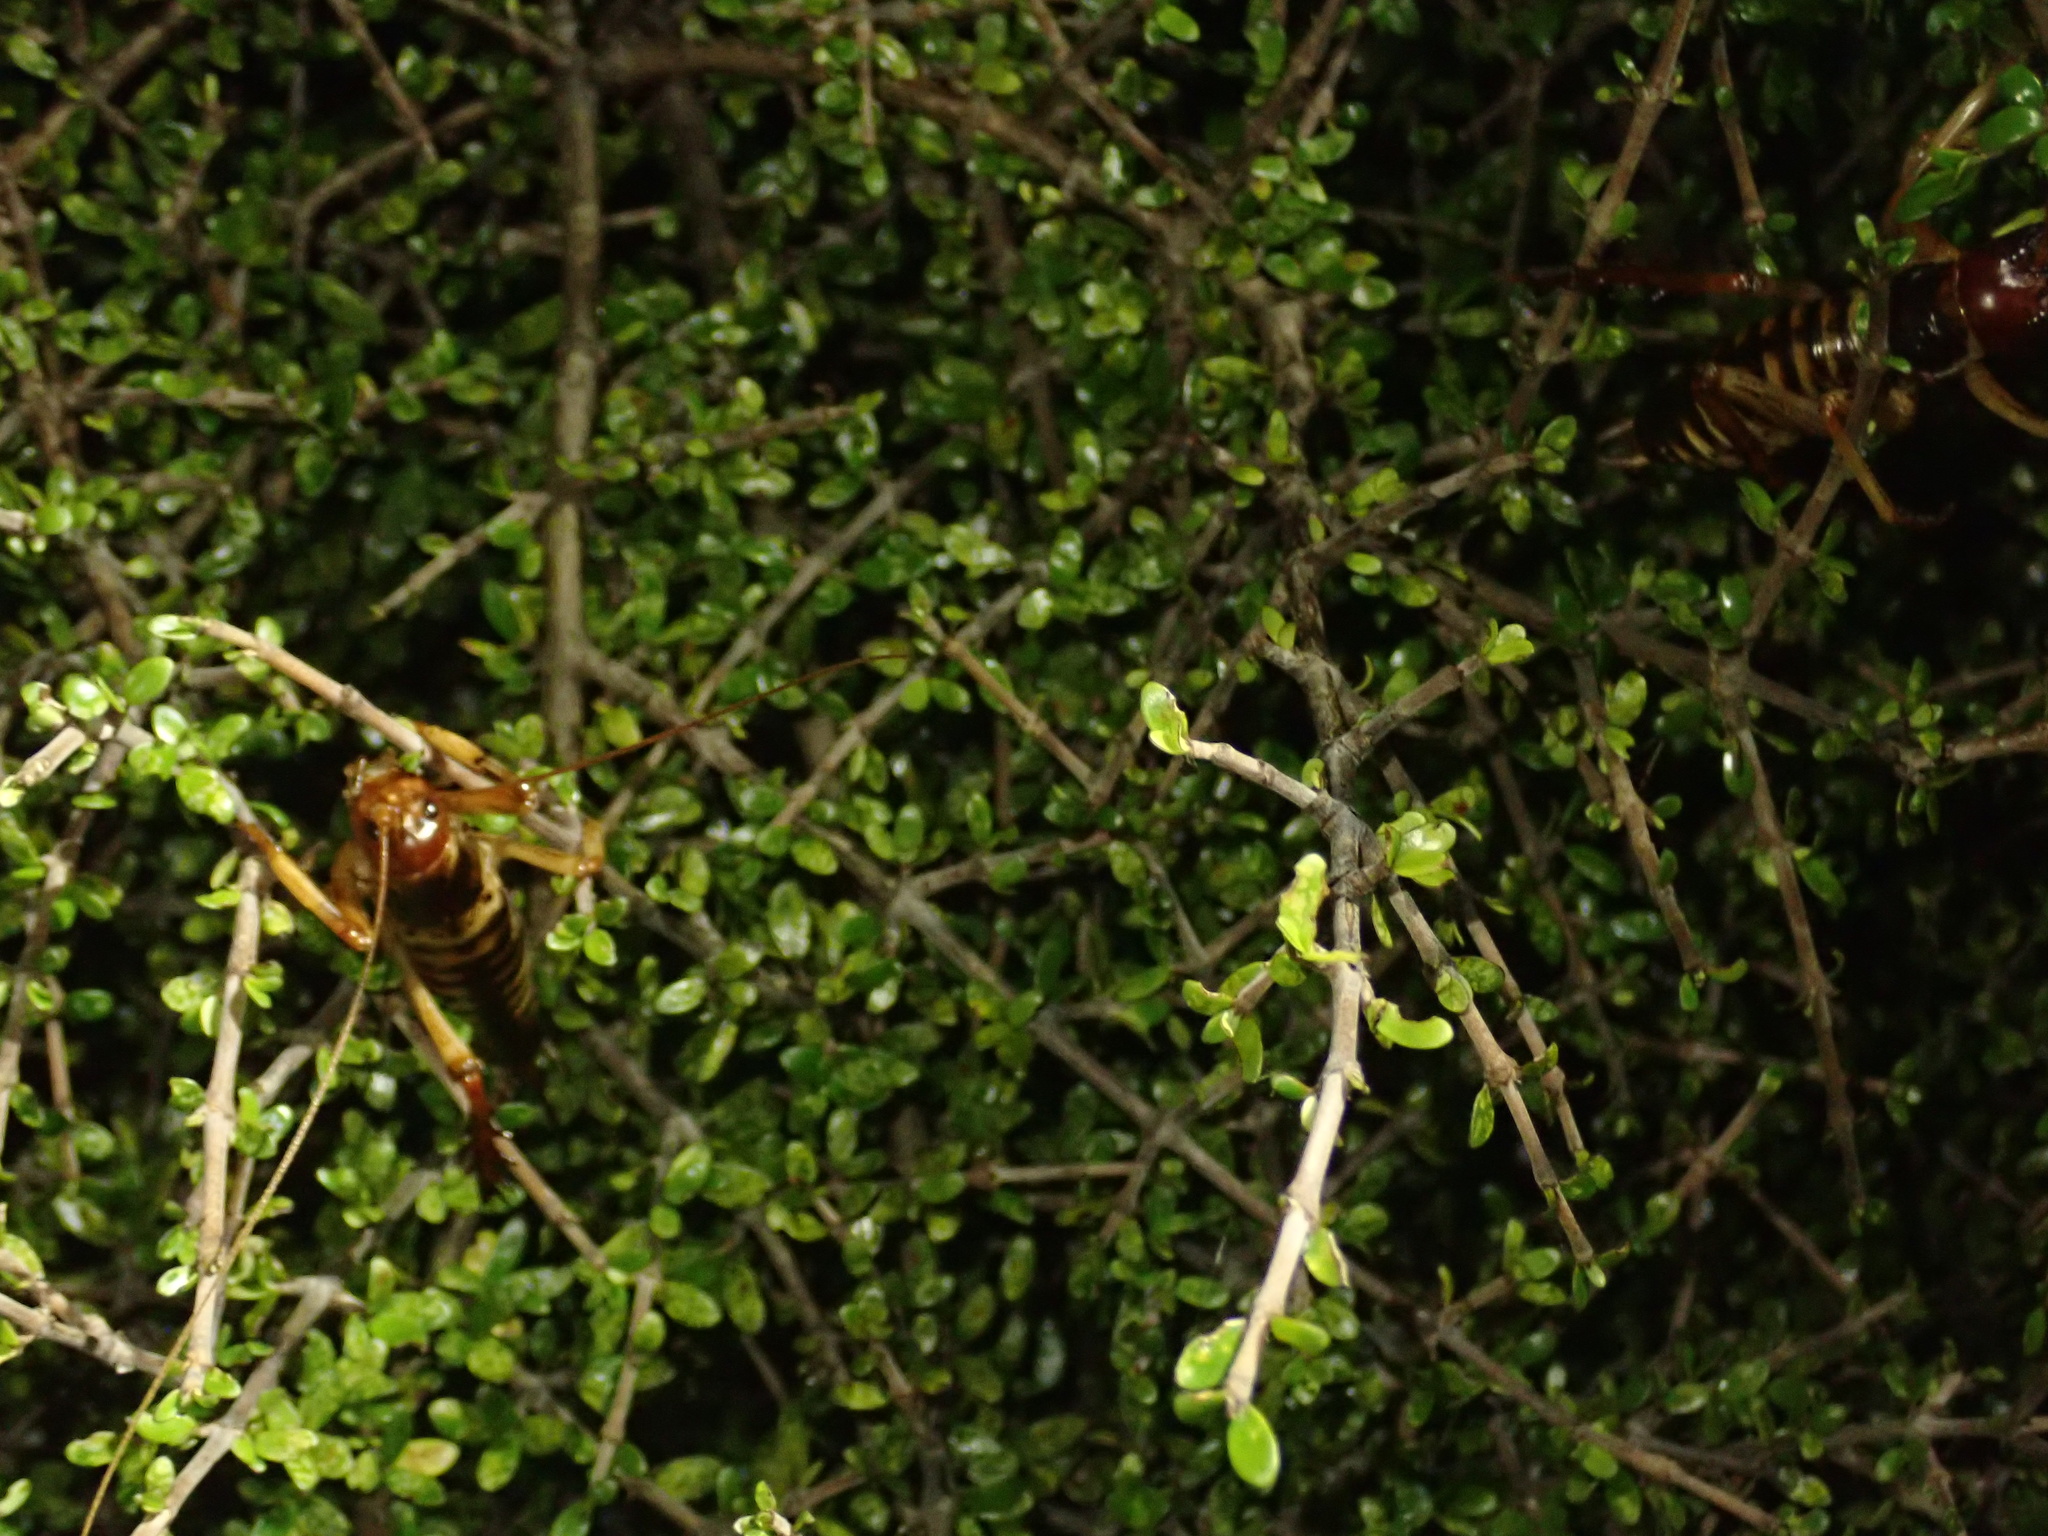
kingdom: Animalia
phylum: Arthropoda
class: Insecta
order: Orthoptera
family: Anostostomatidae
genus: Hemideina
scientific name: Hemideina crassidens
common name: Wellington tree weta
